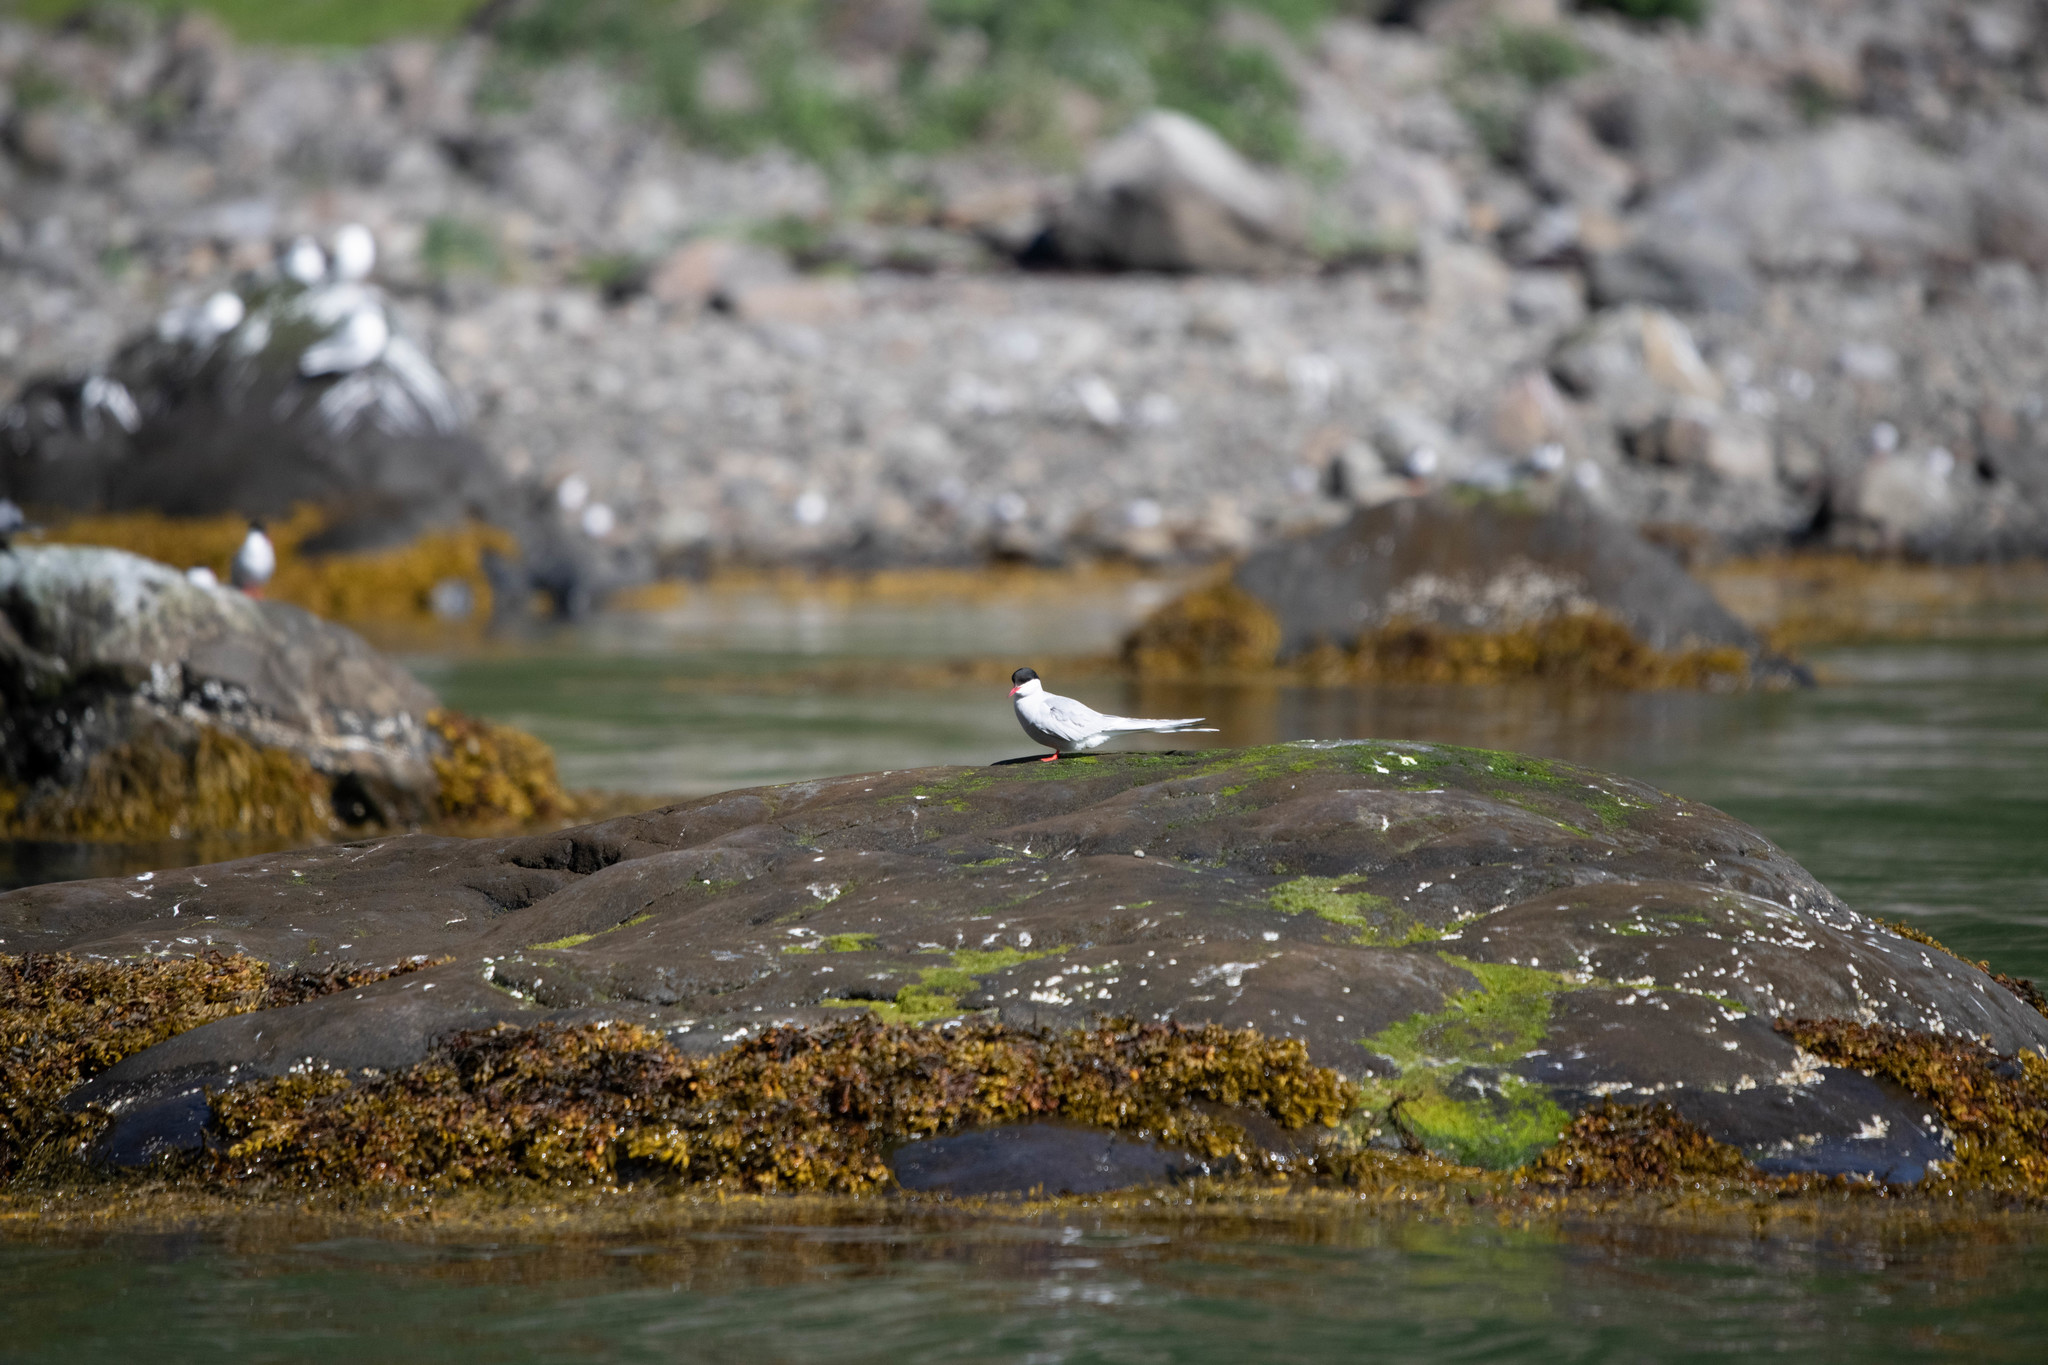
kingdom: Animalia
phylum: Chordata
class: Aves
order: Charadriiformes
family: Laridae
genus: Sterna
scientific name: Sterna paradisaea
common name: Arctic tern
